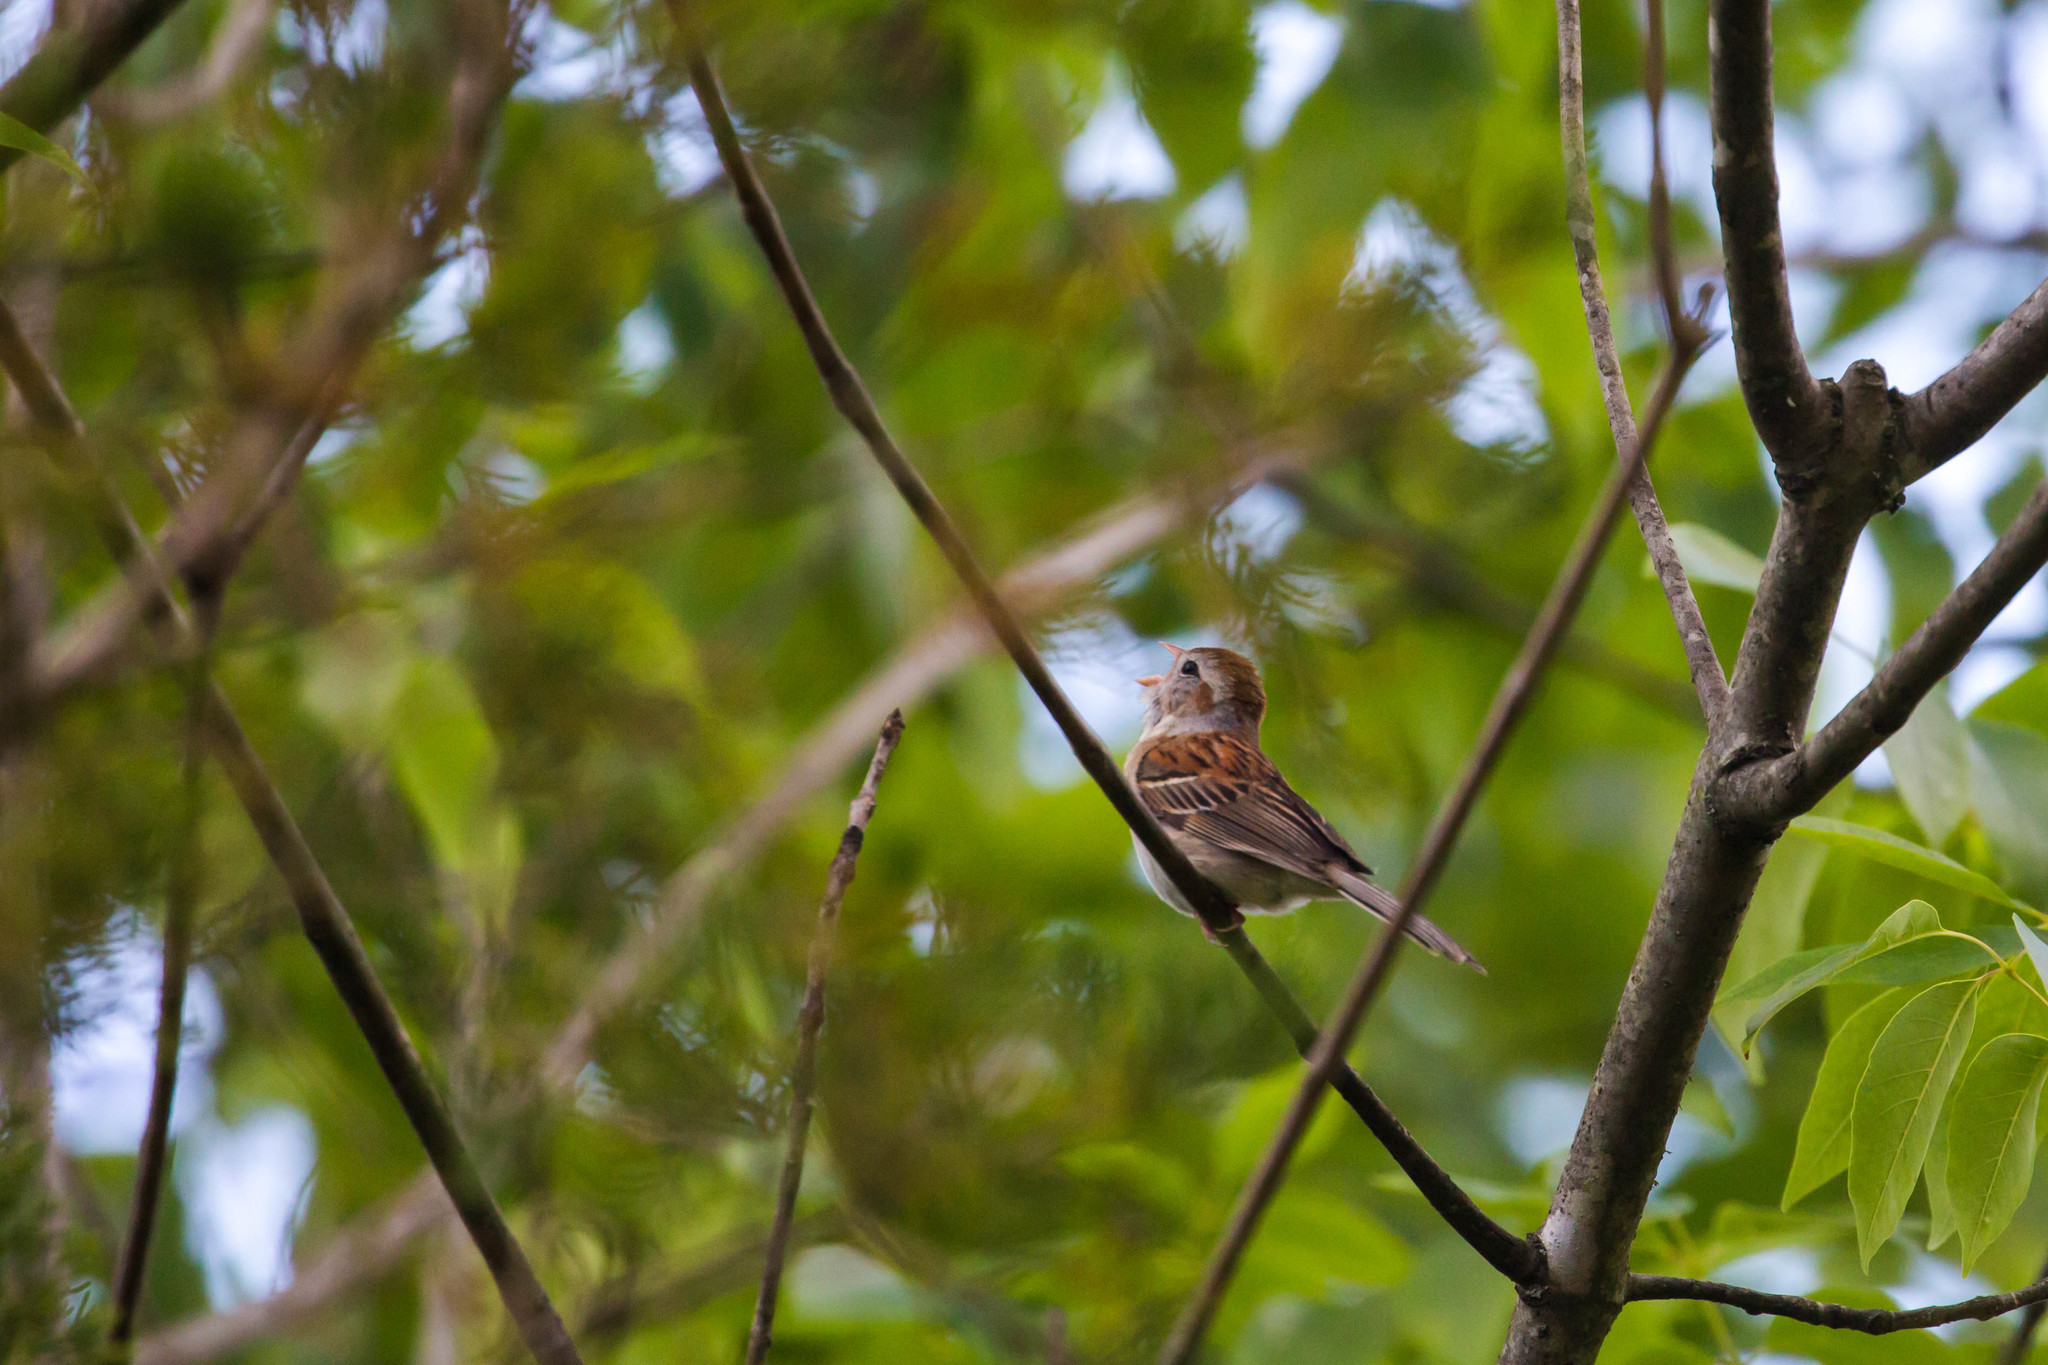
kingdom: Animalia
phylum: Chordata
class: Aves
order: Passeriformes
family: Passerellidae
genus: Spizella
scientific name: Spizella pusilla
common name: Field sparrow
